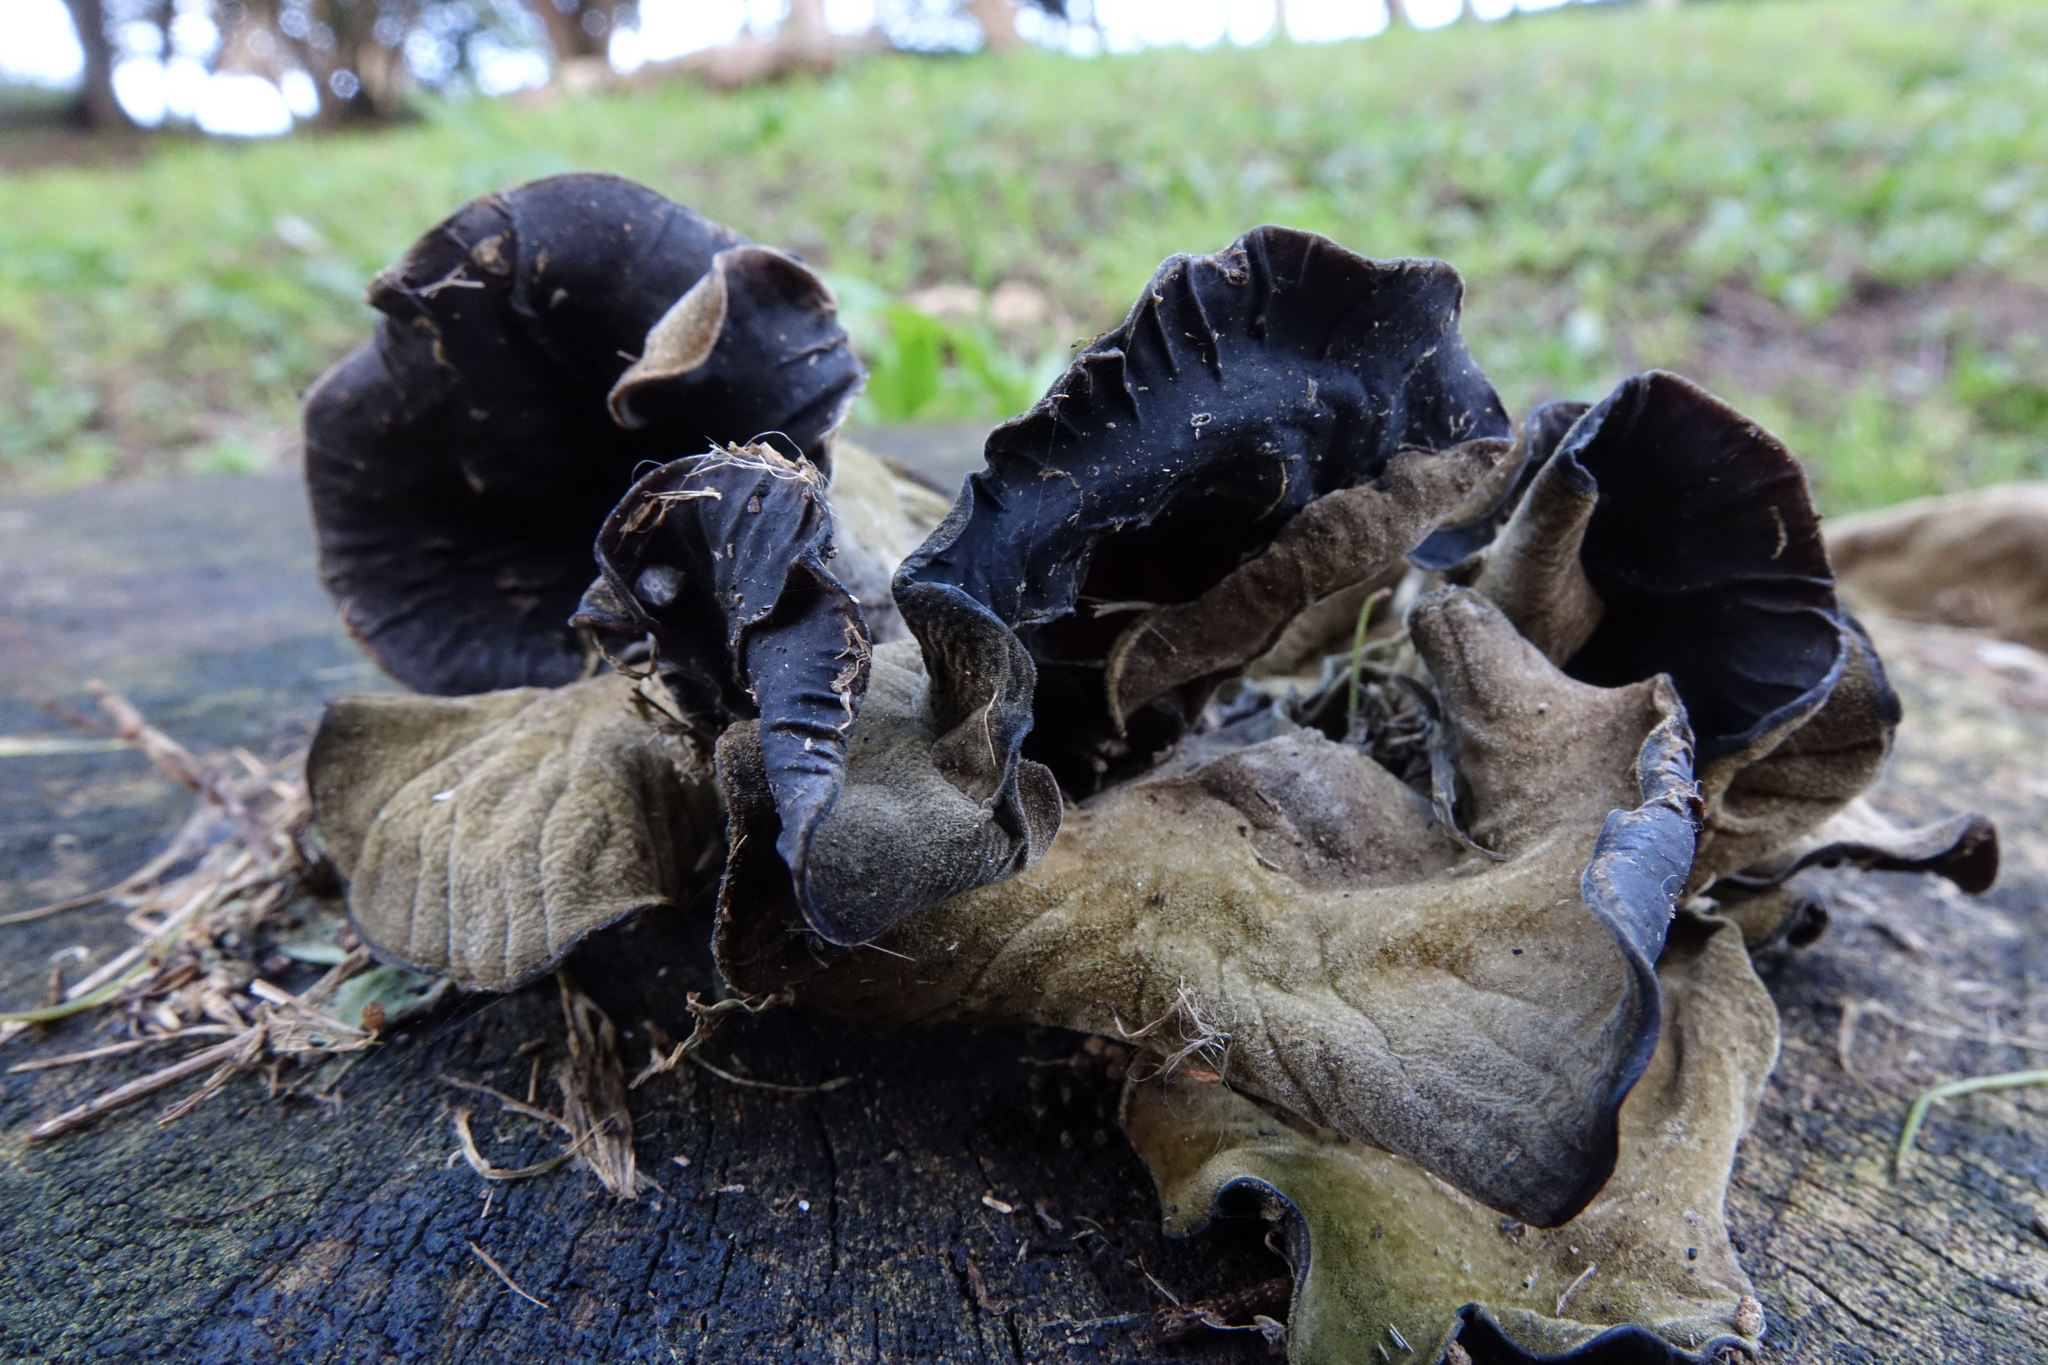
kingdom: Fungi
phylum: Basidiomycota
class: Agaricomycetes
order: Auriculariales
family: Auriculariaceae
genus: Auricularia
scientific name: Auricularia cornea
